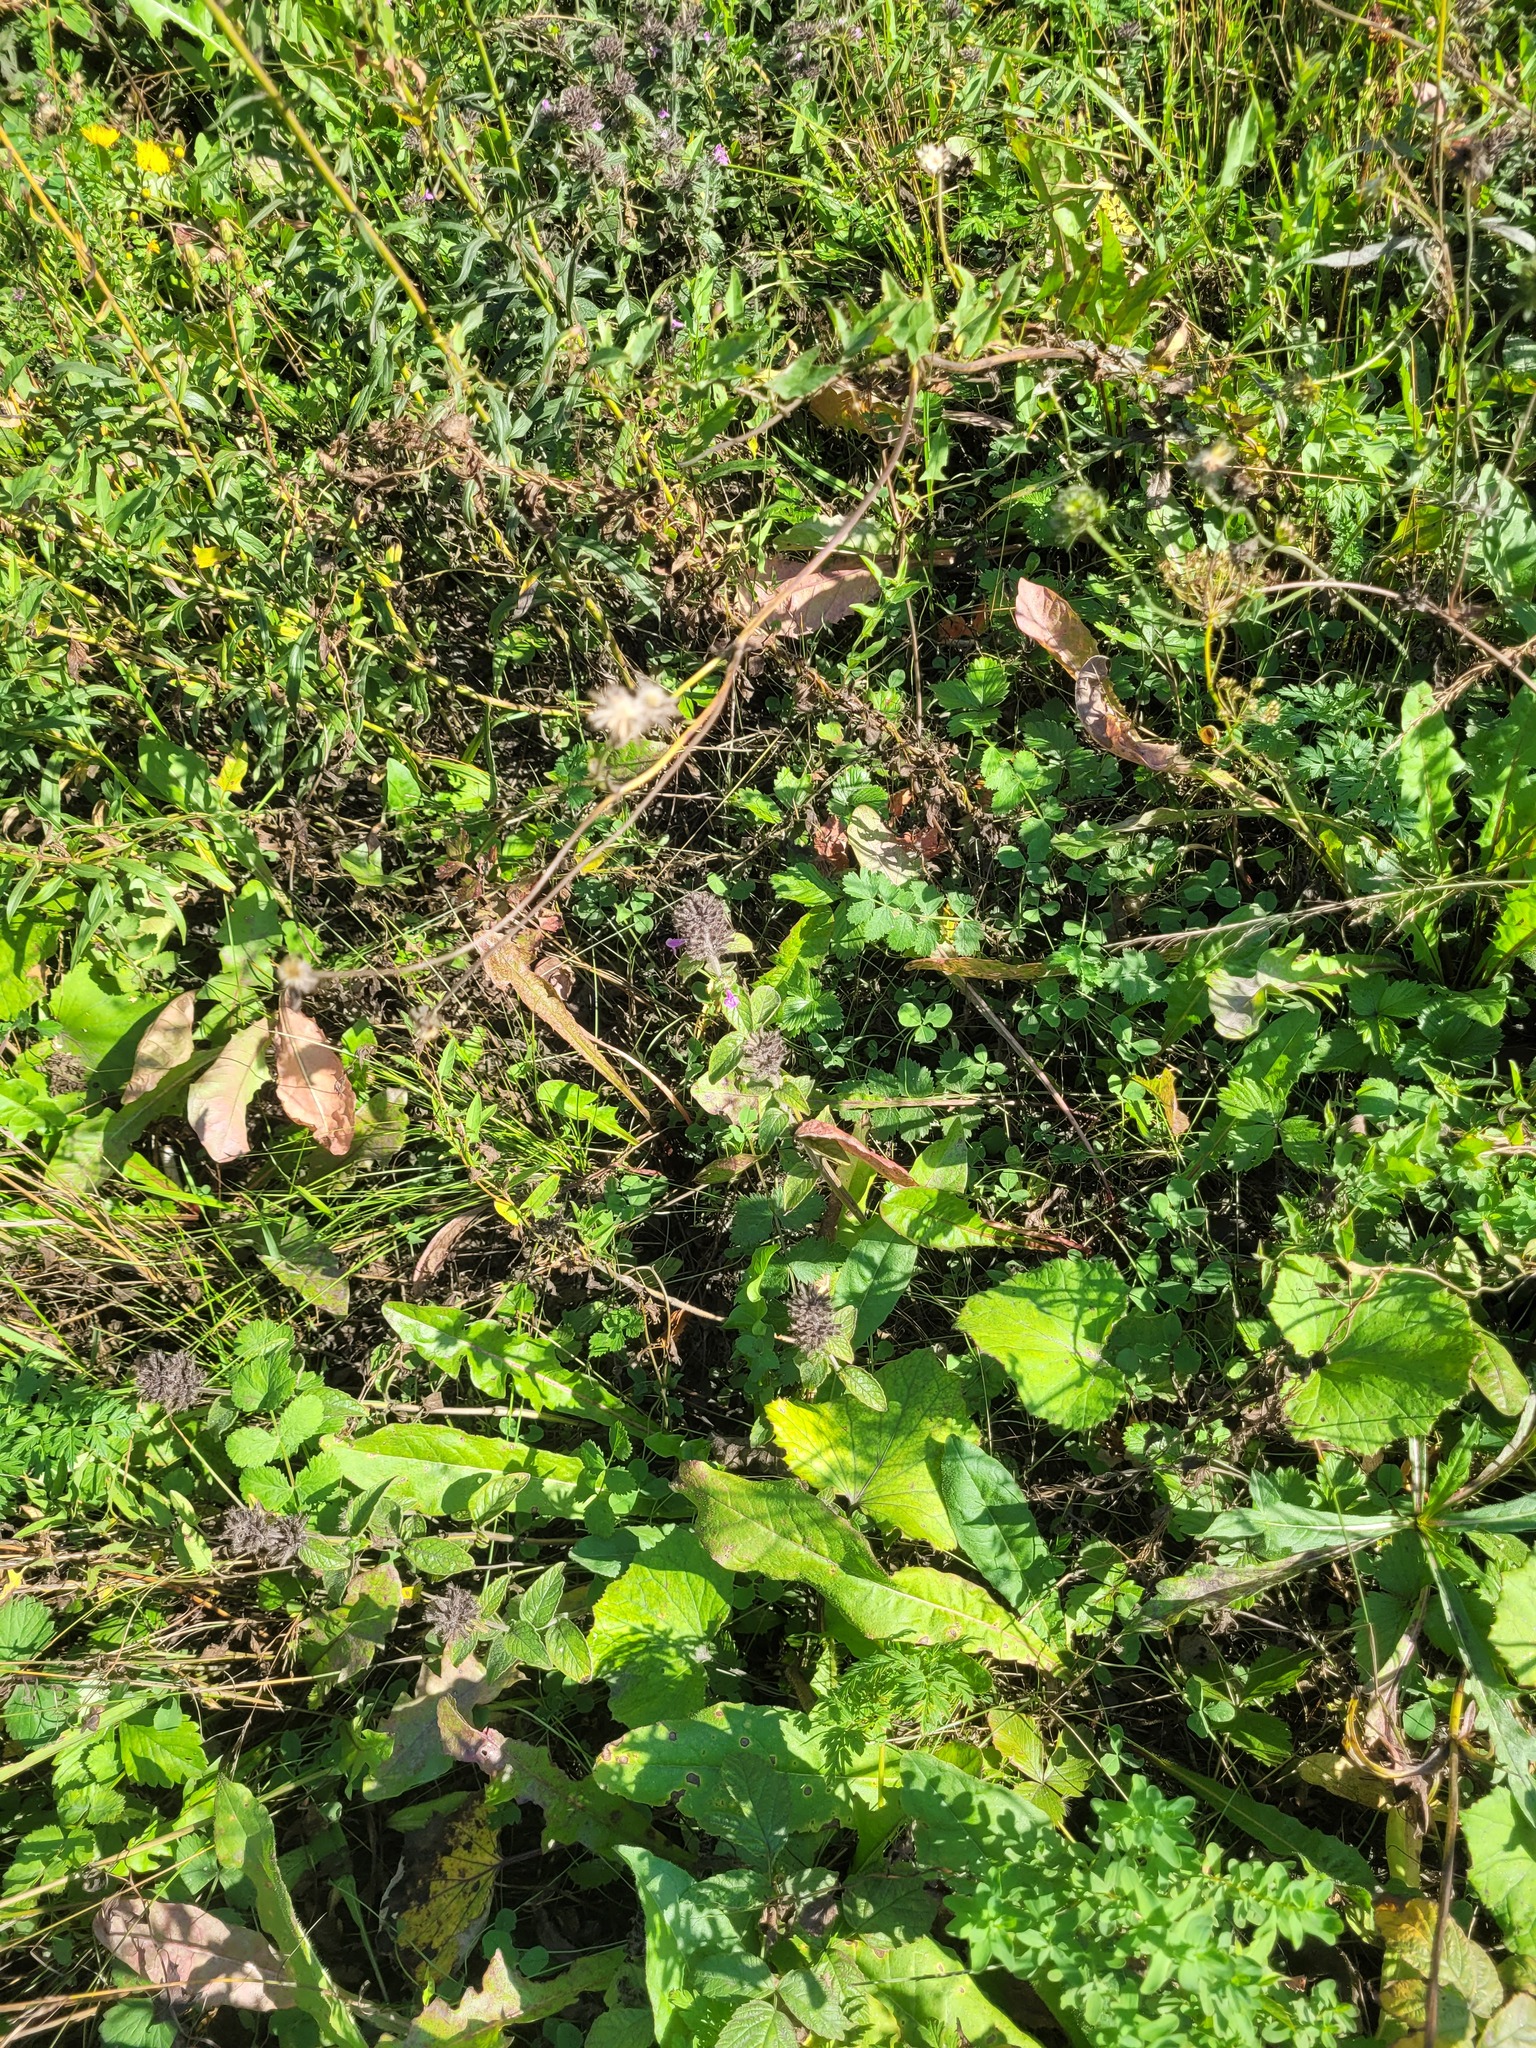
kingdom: Plantae
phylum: Tracheophyta
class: Magnoliopsida
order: Lamiales
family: Lamiaceae
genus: Clinopodium
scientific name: Clinopodium vulgare
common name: Wild basil
